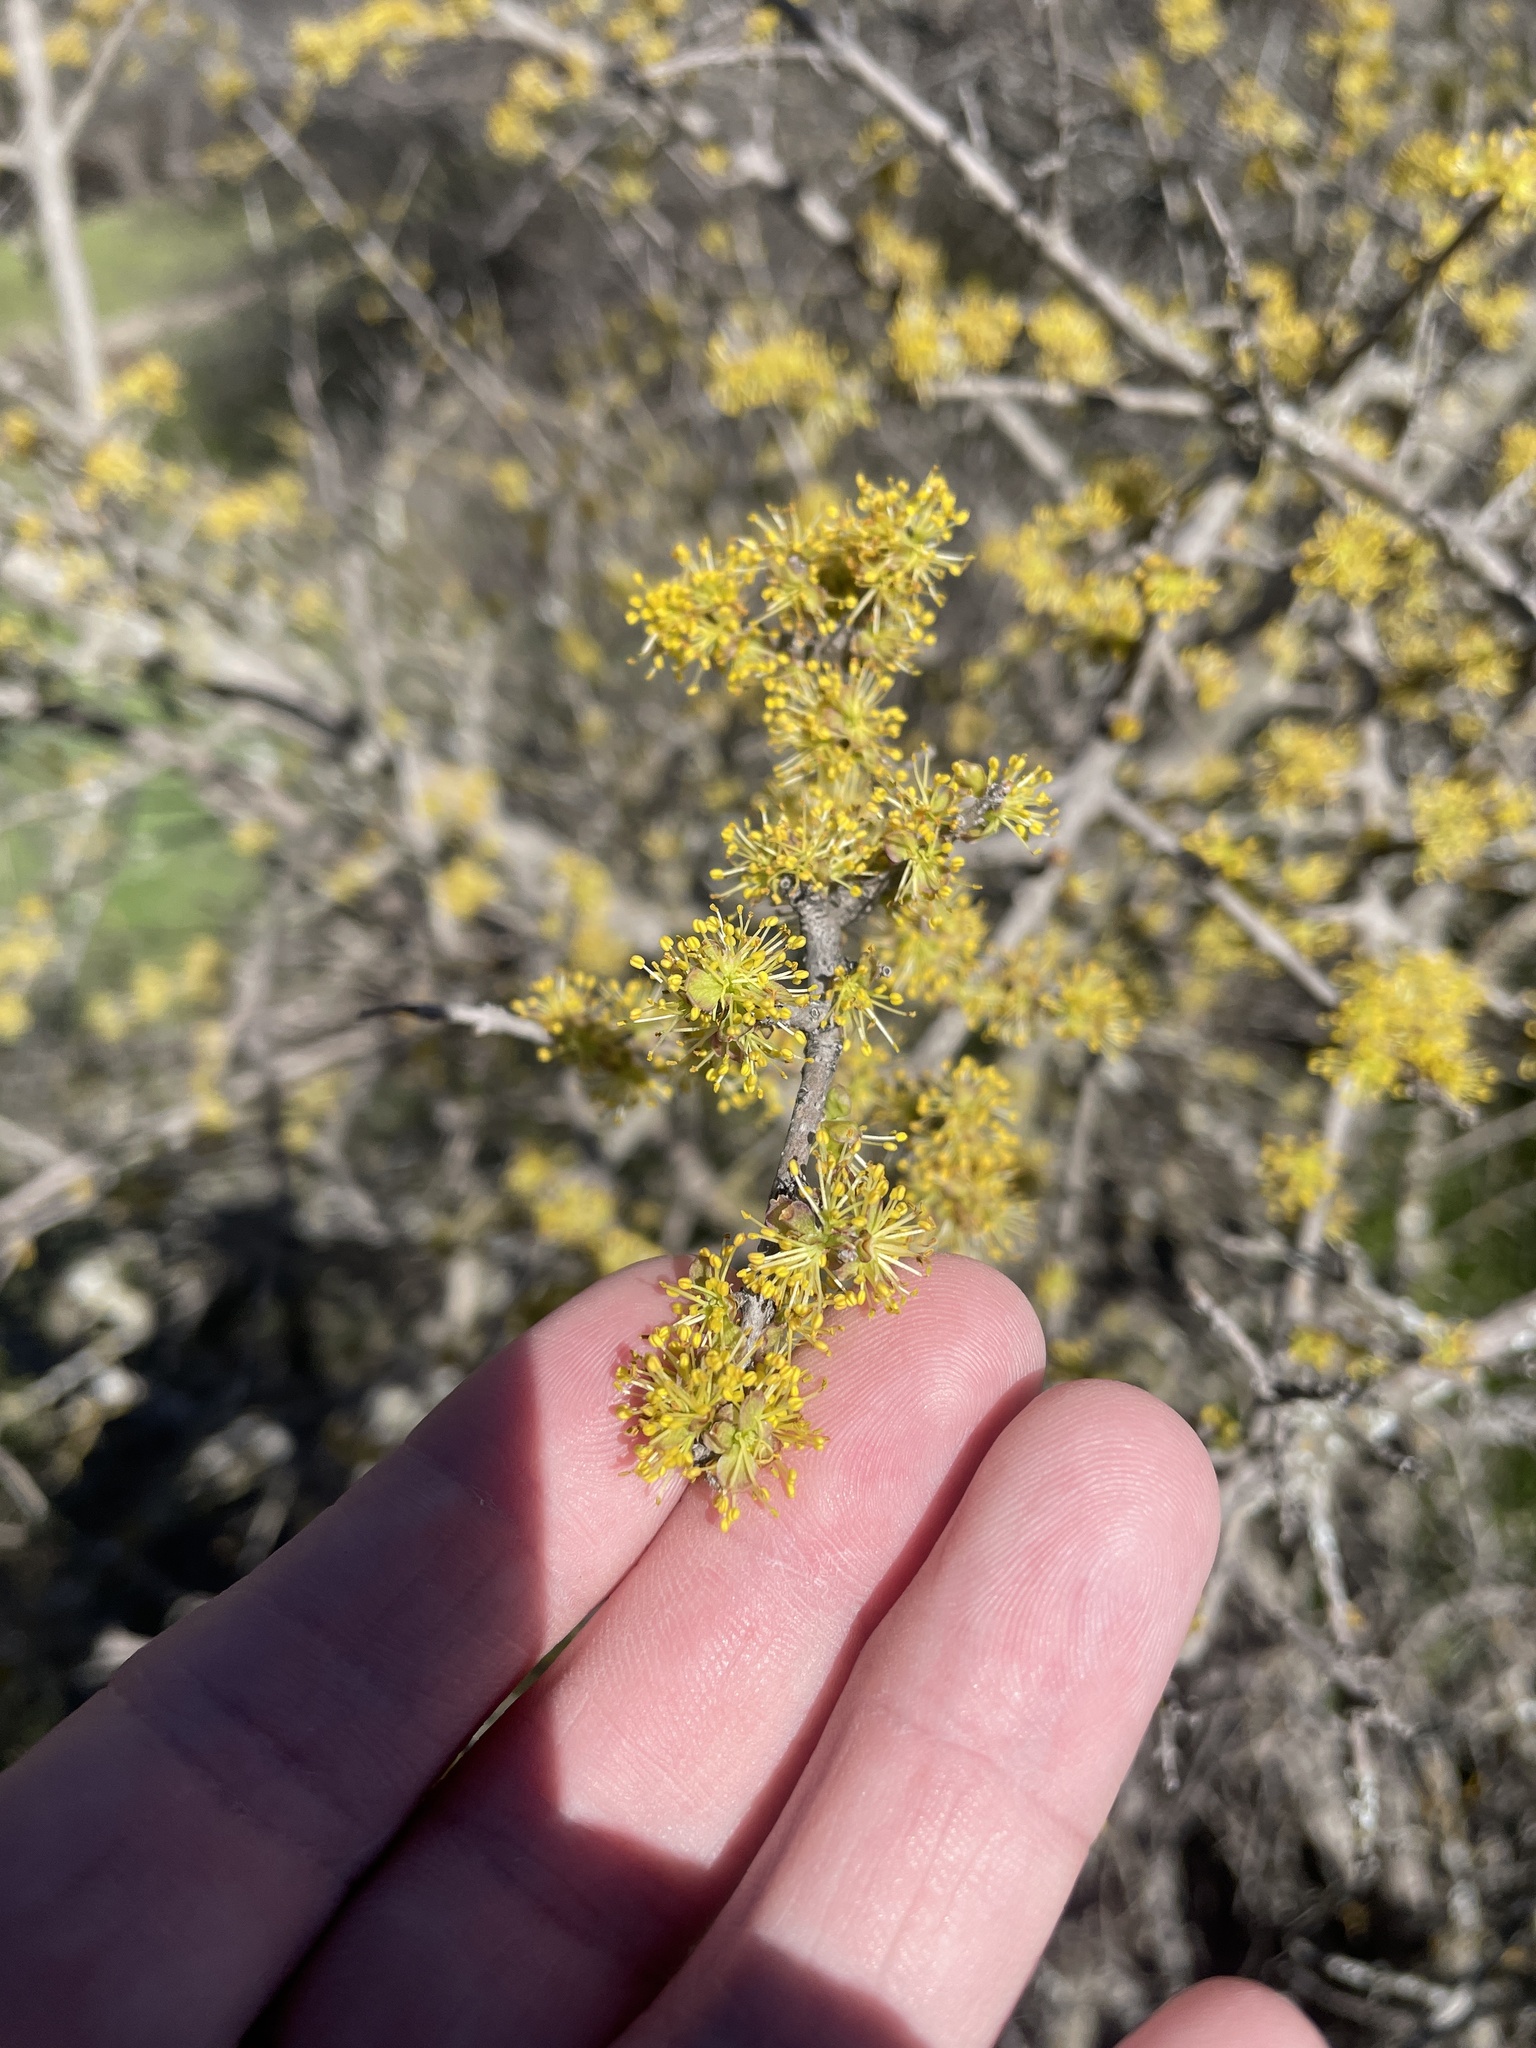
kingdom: Plantae
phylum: Tracheophyta
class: Magnoliopsida
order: Lamiales
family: Oleaceae
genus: Forestiera
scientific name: Forestiera pubescens
